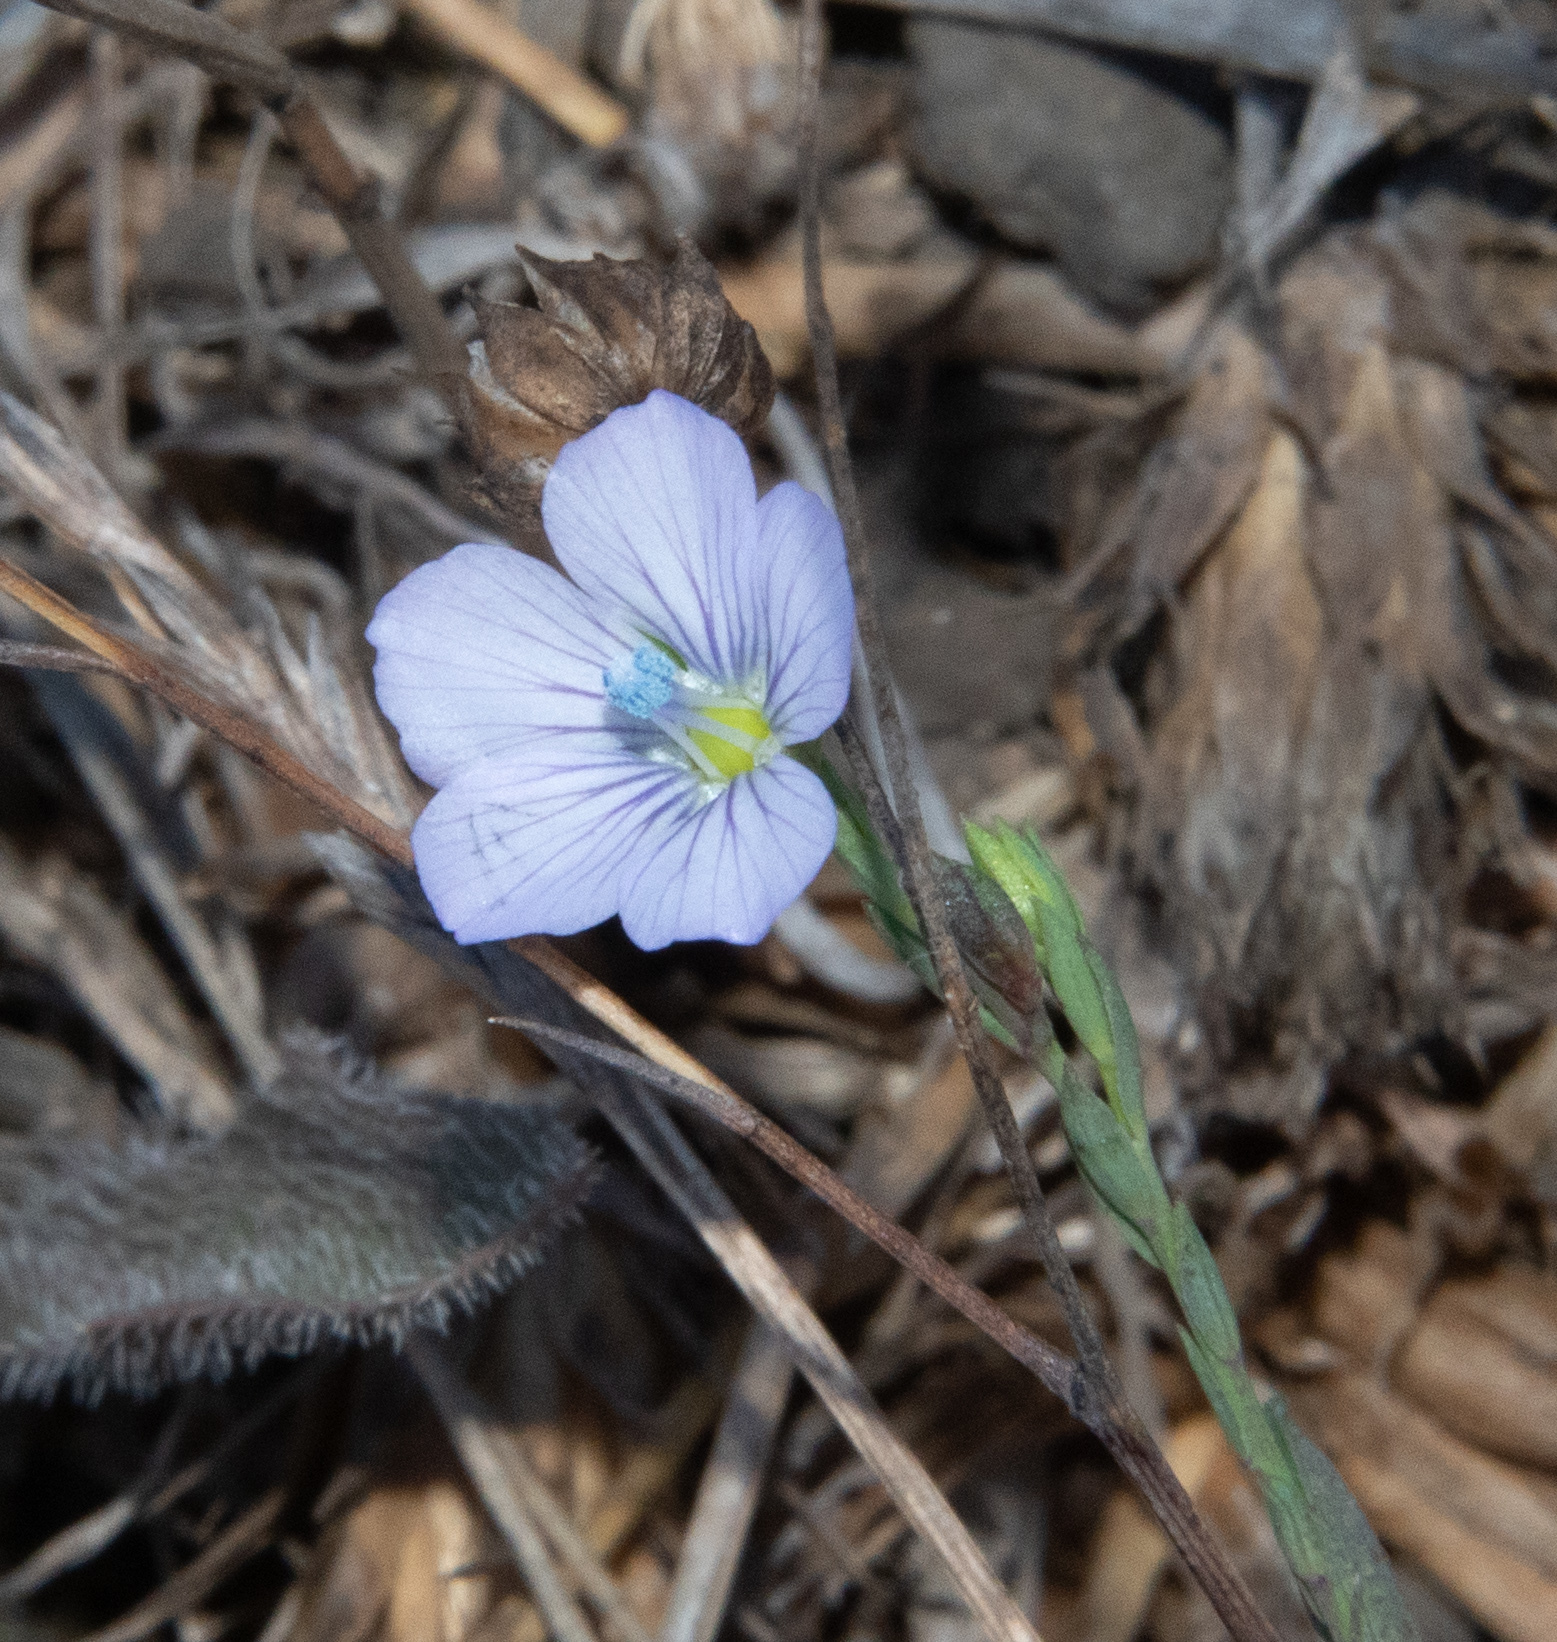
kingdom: Plantae
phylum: Tracheophyta
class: Magnoliopsida
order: Malpighiales
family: Linaceae
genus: Linum
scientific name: Linum bienne
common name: Pale flax
